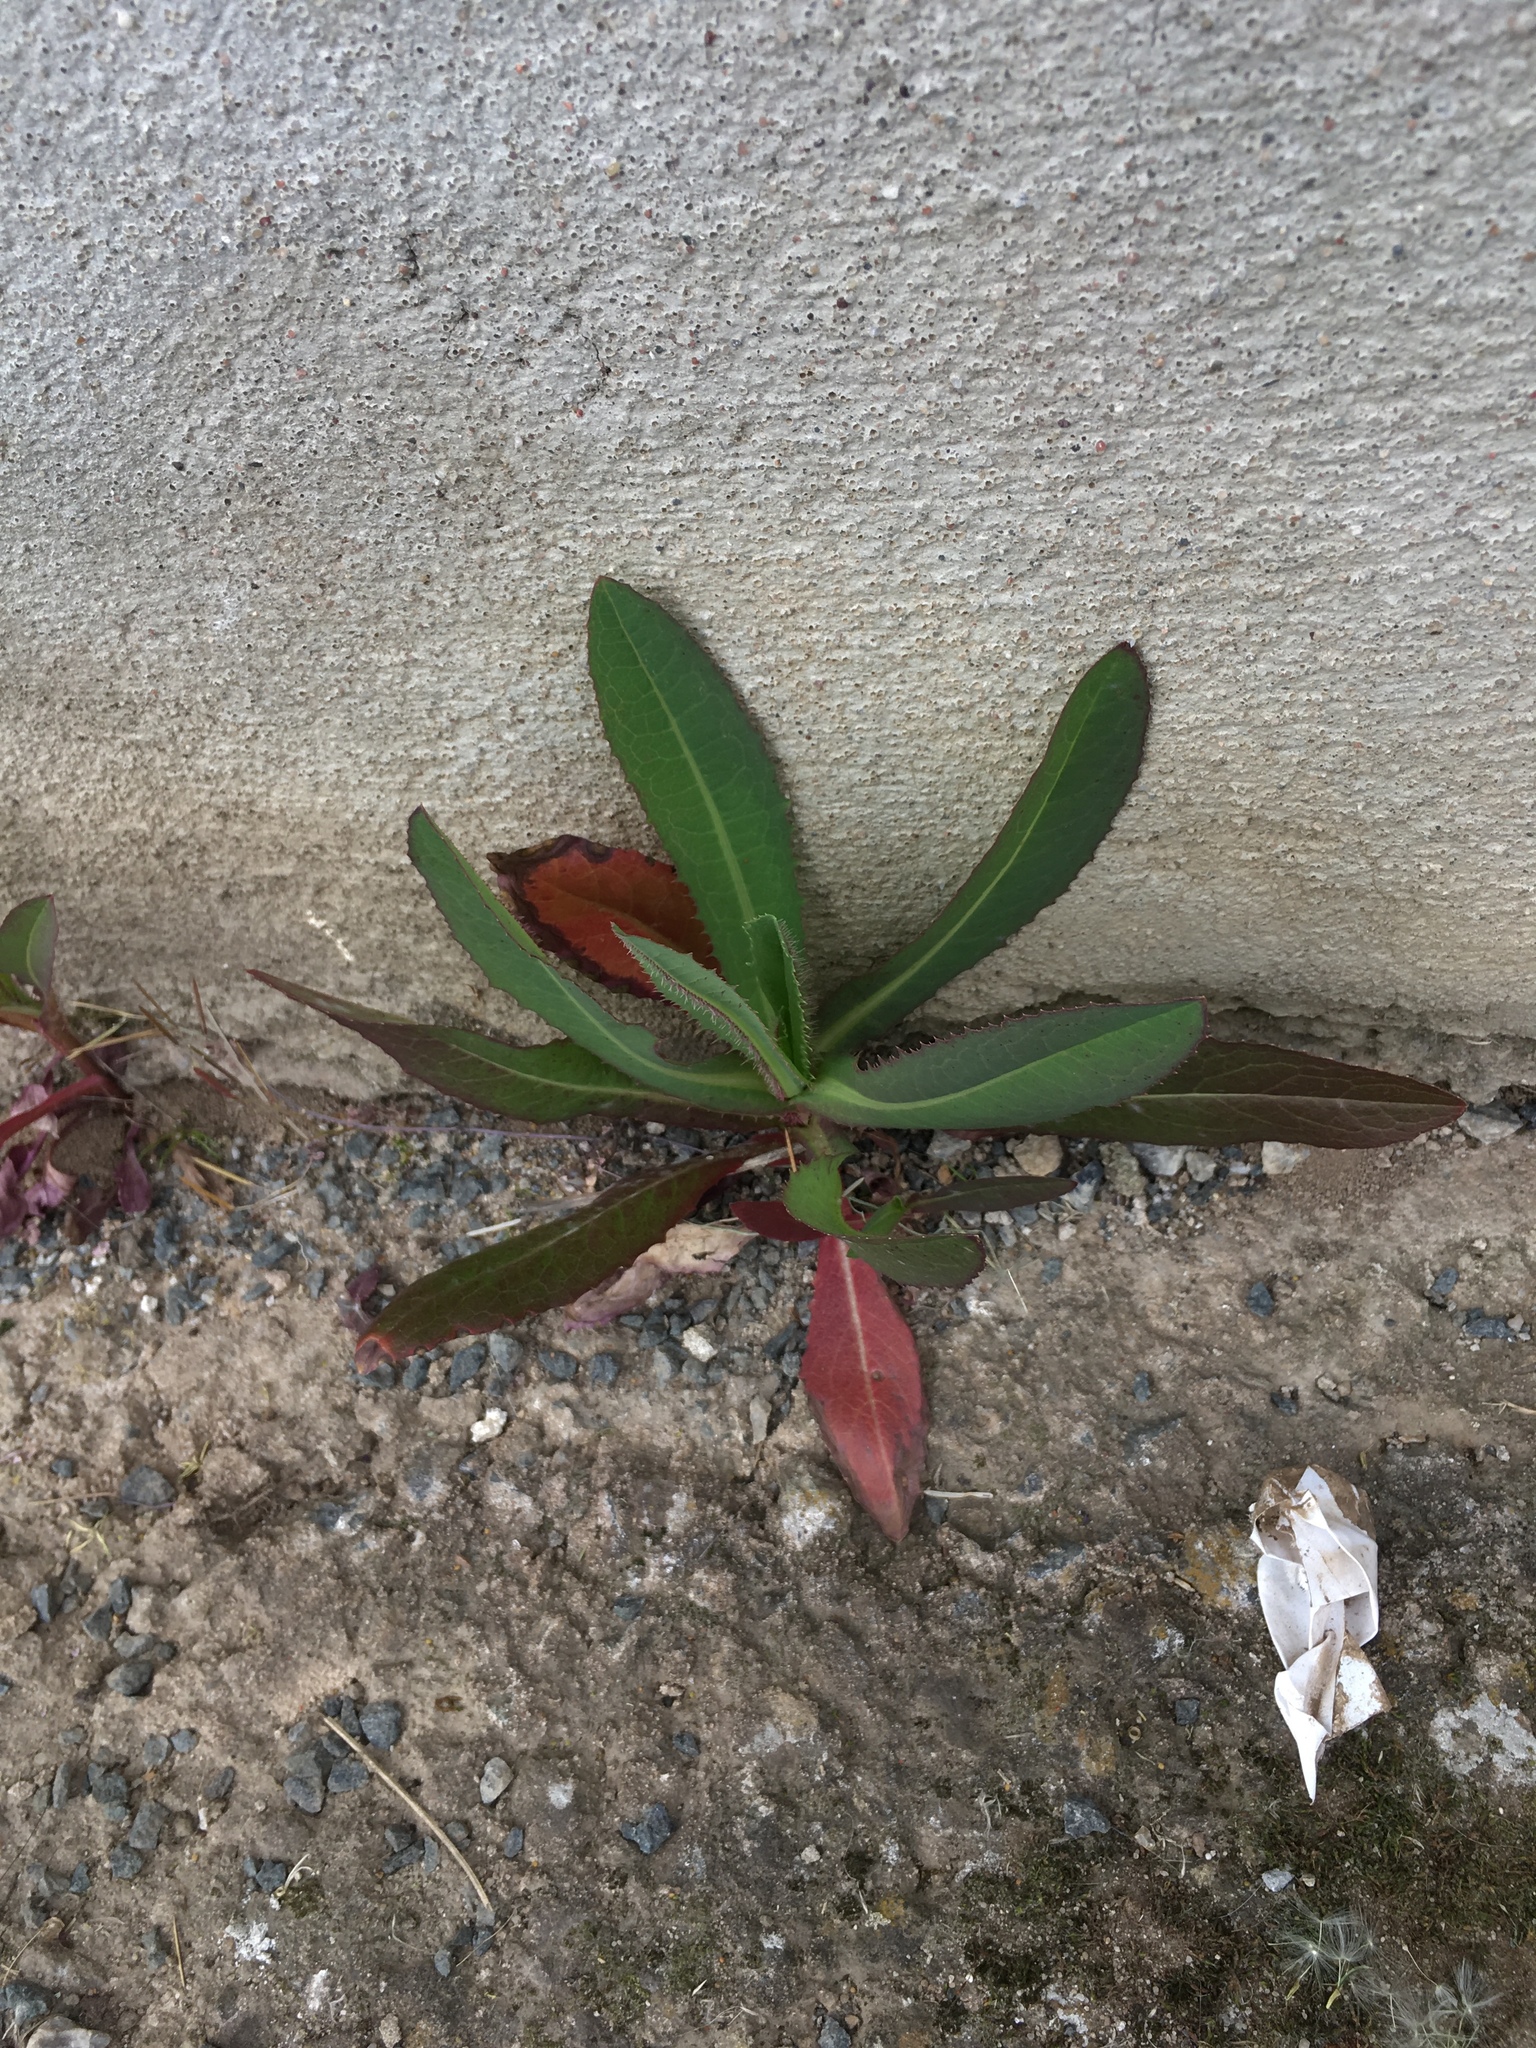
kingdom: Plantae
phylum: Tracheophyta
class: Magnoliopsida
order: Asterales
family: Asteraceae
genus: Lactuca
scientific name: Lactuca serriola
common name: Prickly lettuce
